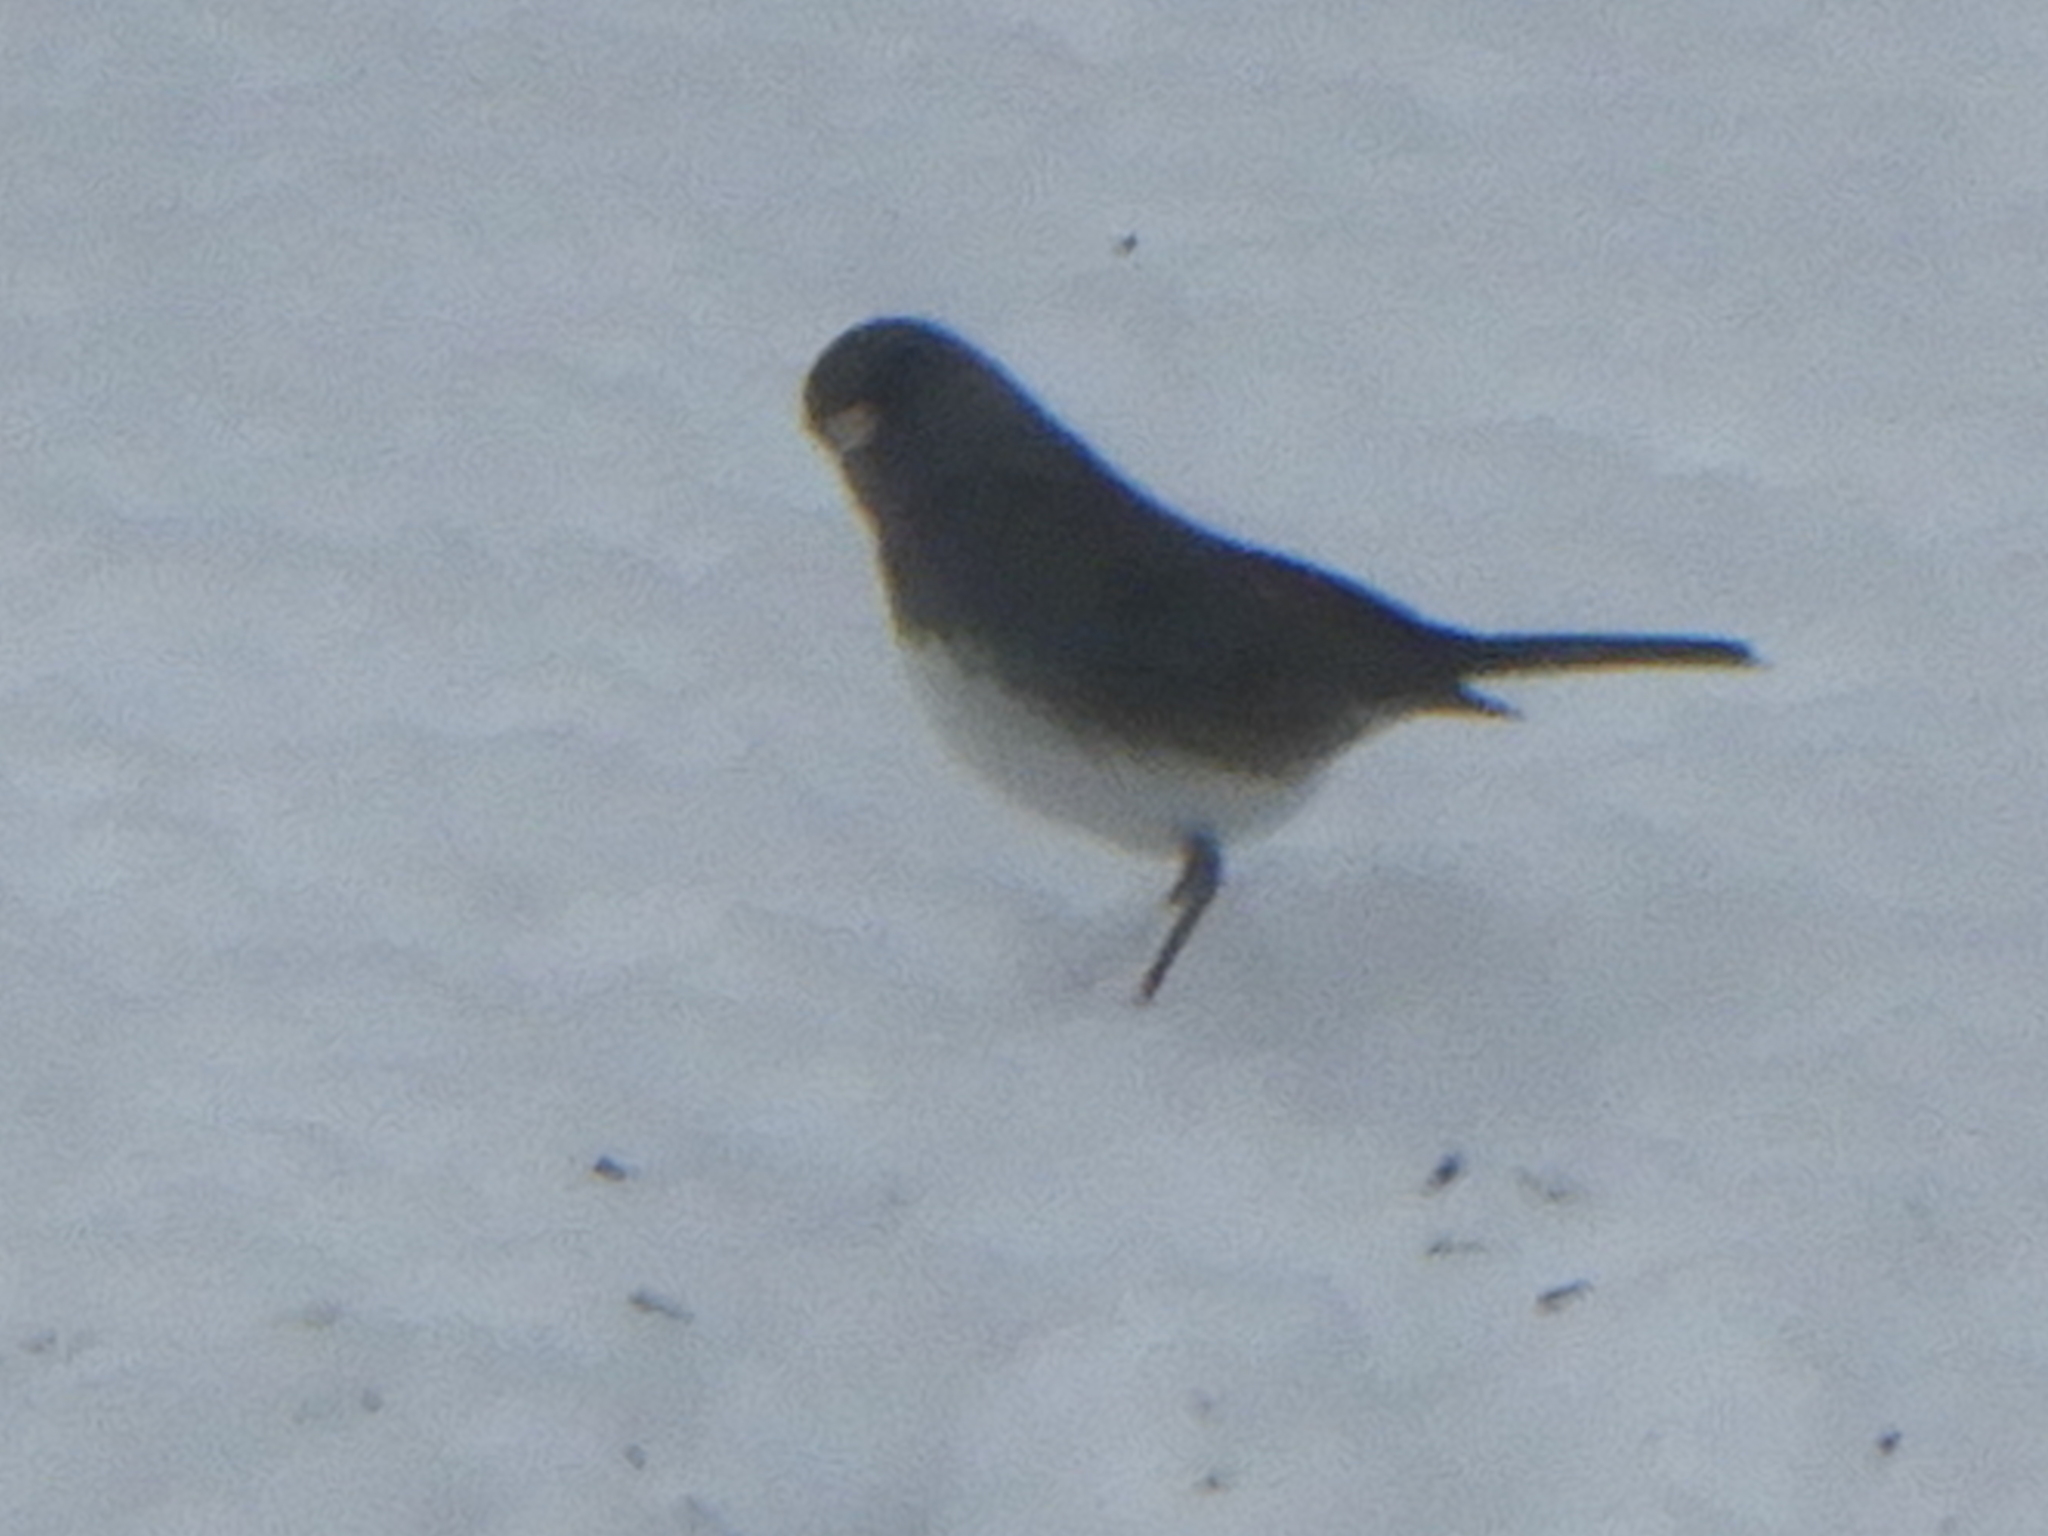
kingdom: Animalia
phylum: Chordata
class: Aves
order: Passeriformes
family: Passerellidae
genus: Junco
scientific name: Junco hyemalis
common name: Dark-eyed junco
